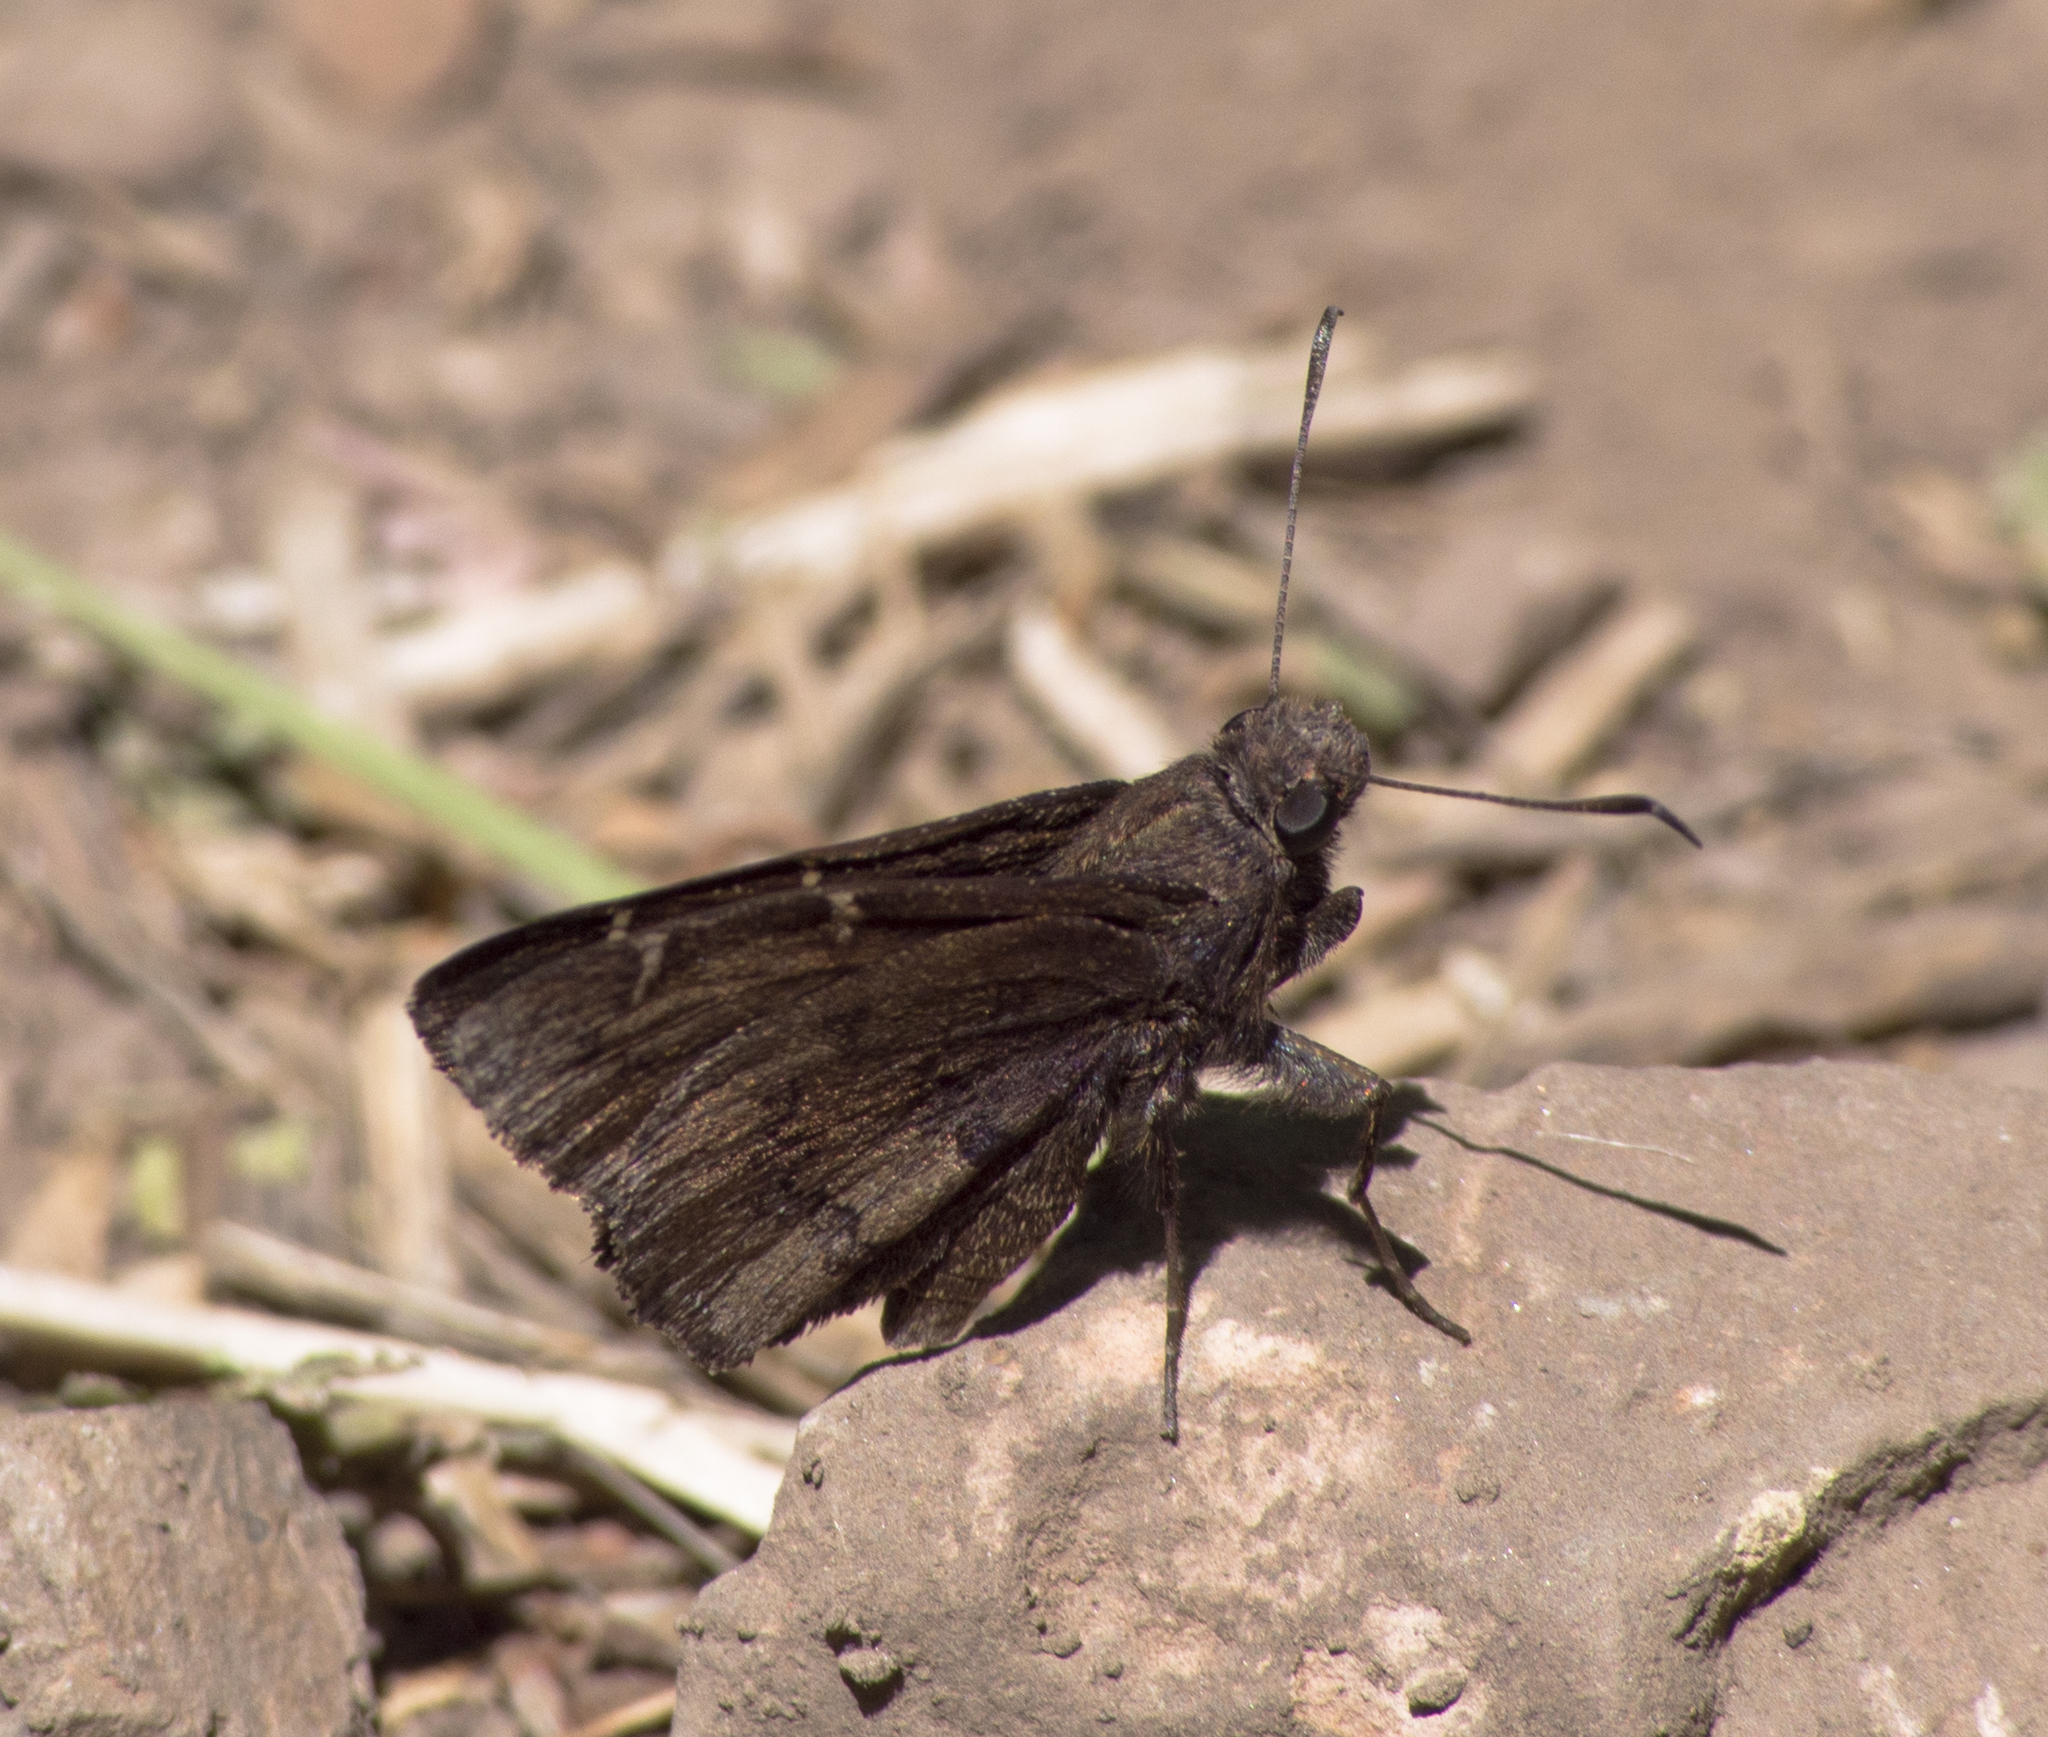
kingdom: Animalia
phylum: Arthropoda
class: Insecta
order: Lepidoptera
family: Hesperiidae
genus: Thorybes
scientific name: Thorybes pylades
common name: Northern cloudywing
